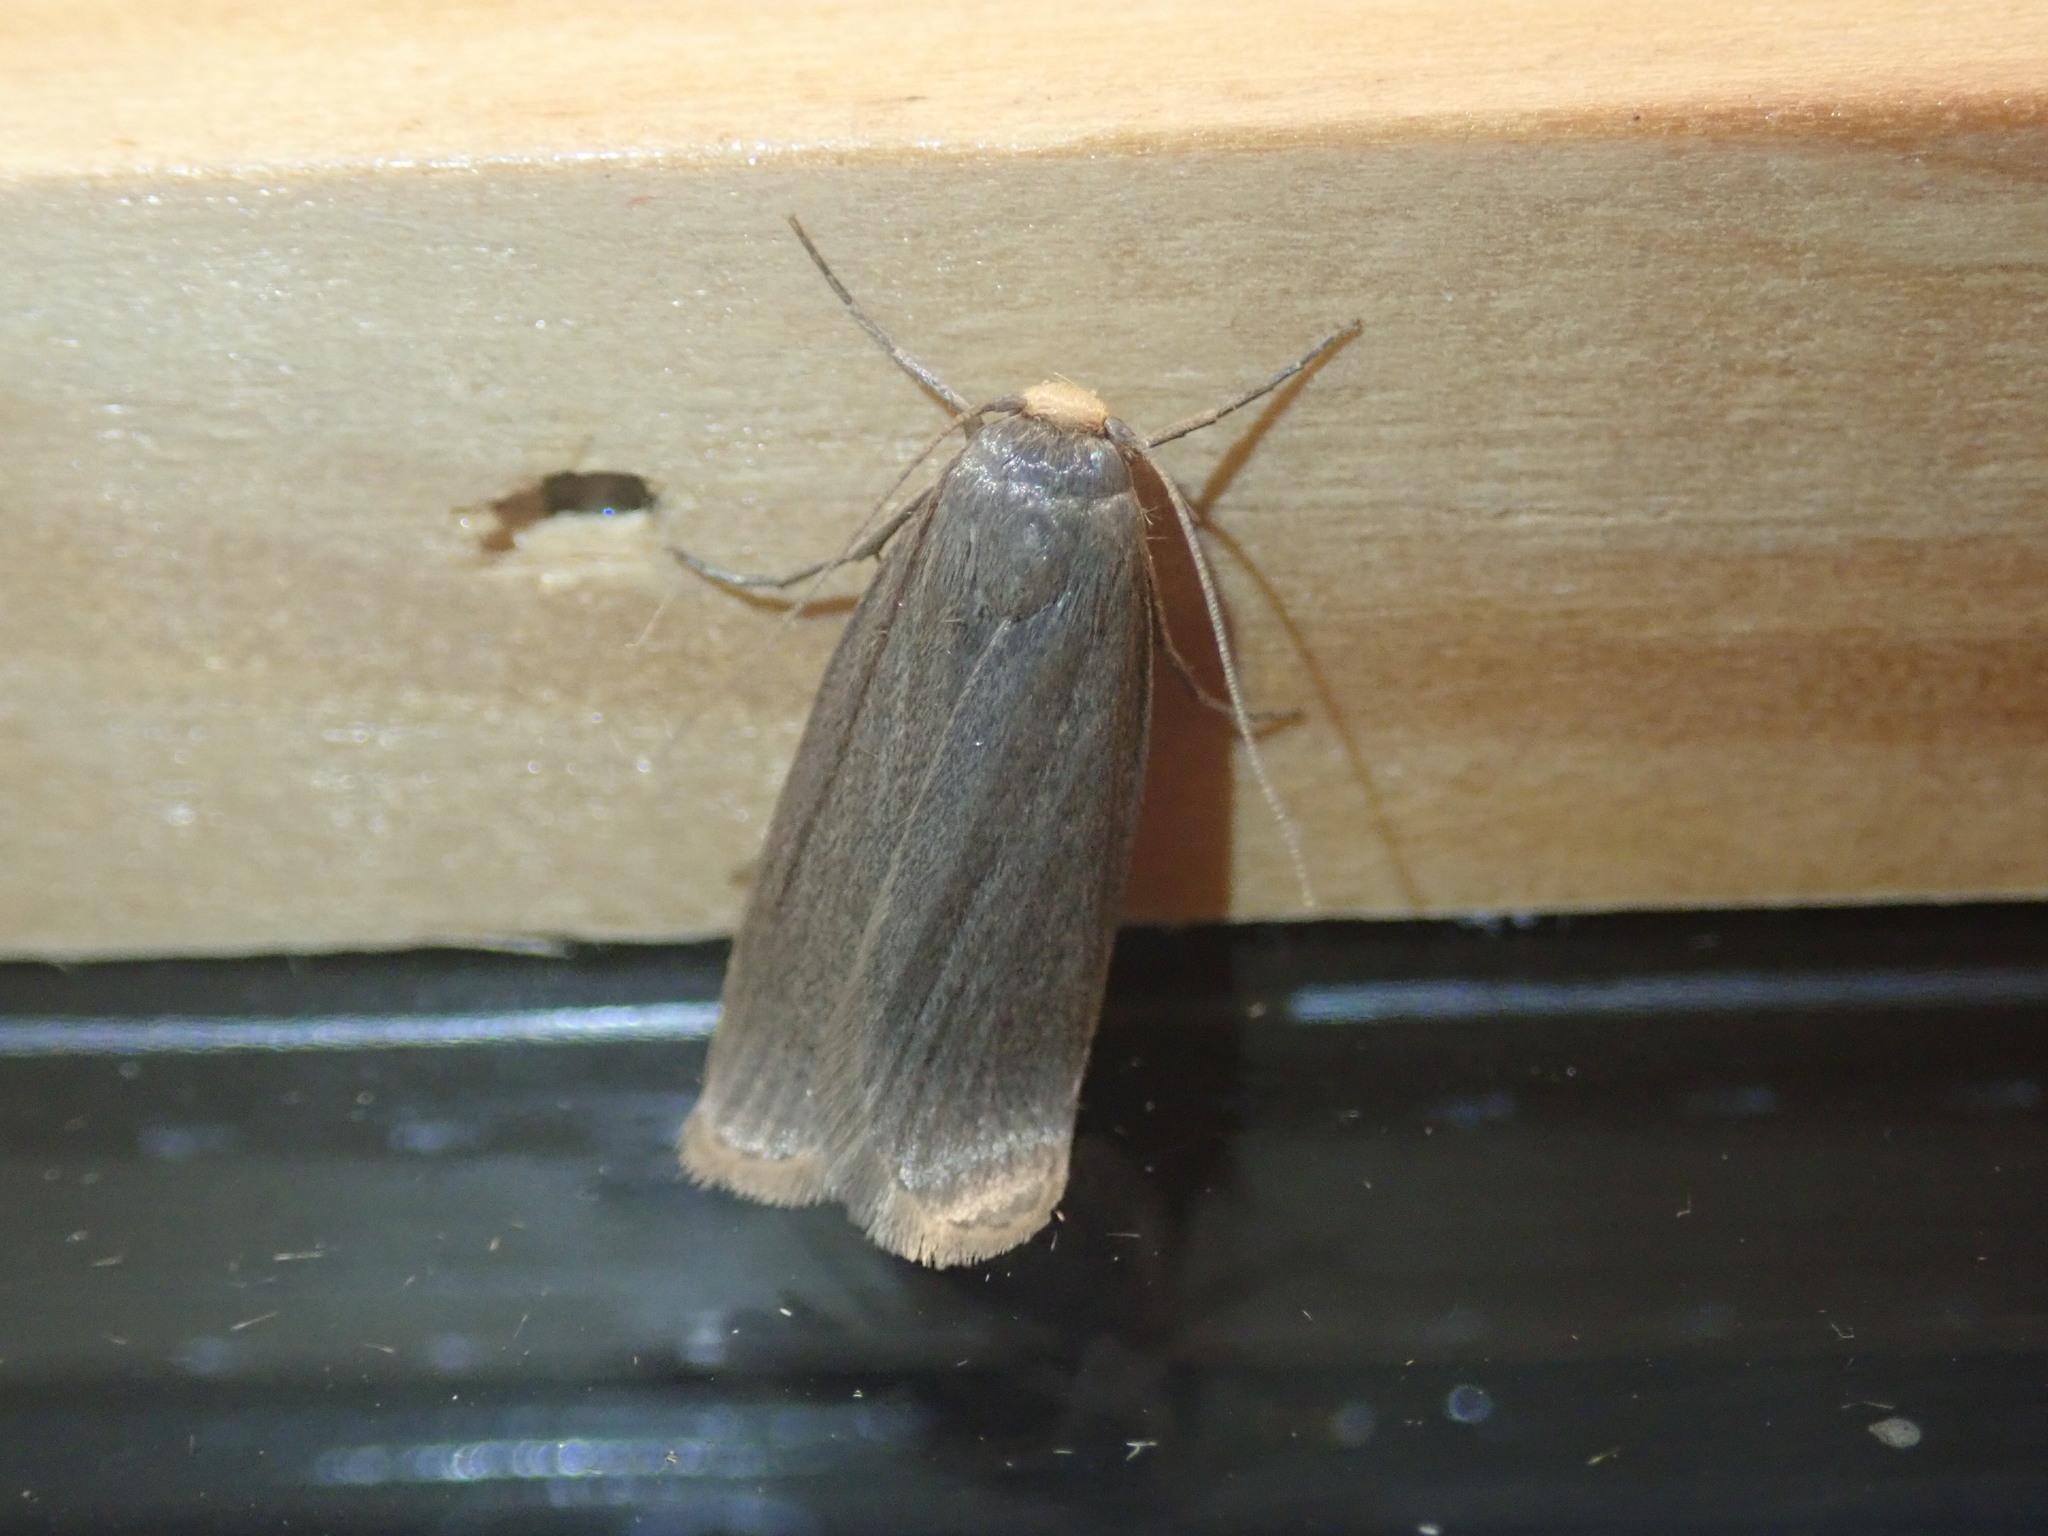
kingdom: Animalia
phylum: Arthropoda
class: Insecta
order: Lepidoptera
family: Pyralidae
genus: Achroia
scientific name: Achroia grisella
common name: Lesser wax moth
